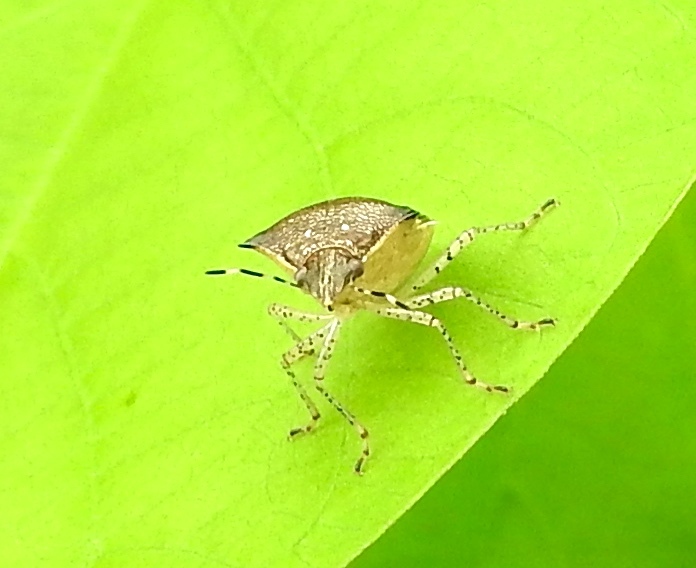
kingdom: Animalia
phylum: Arthropoda
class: Insecta
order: Hemiptera
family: Pentatomidae
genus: Mormidea
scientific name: Mormidea notulata
